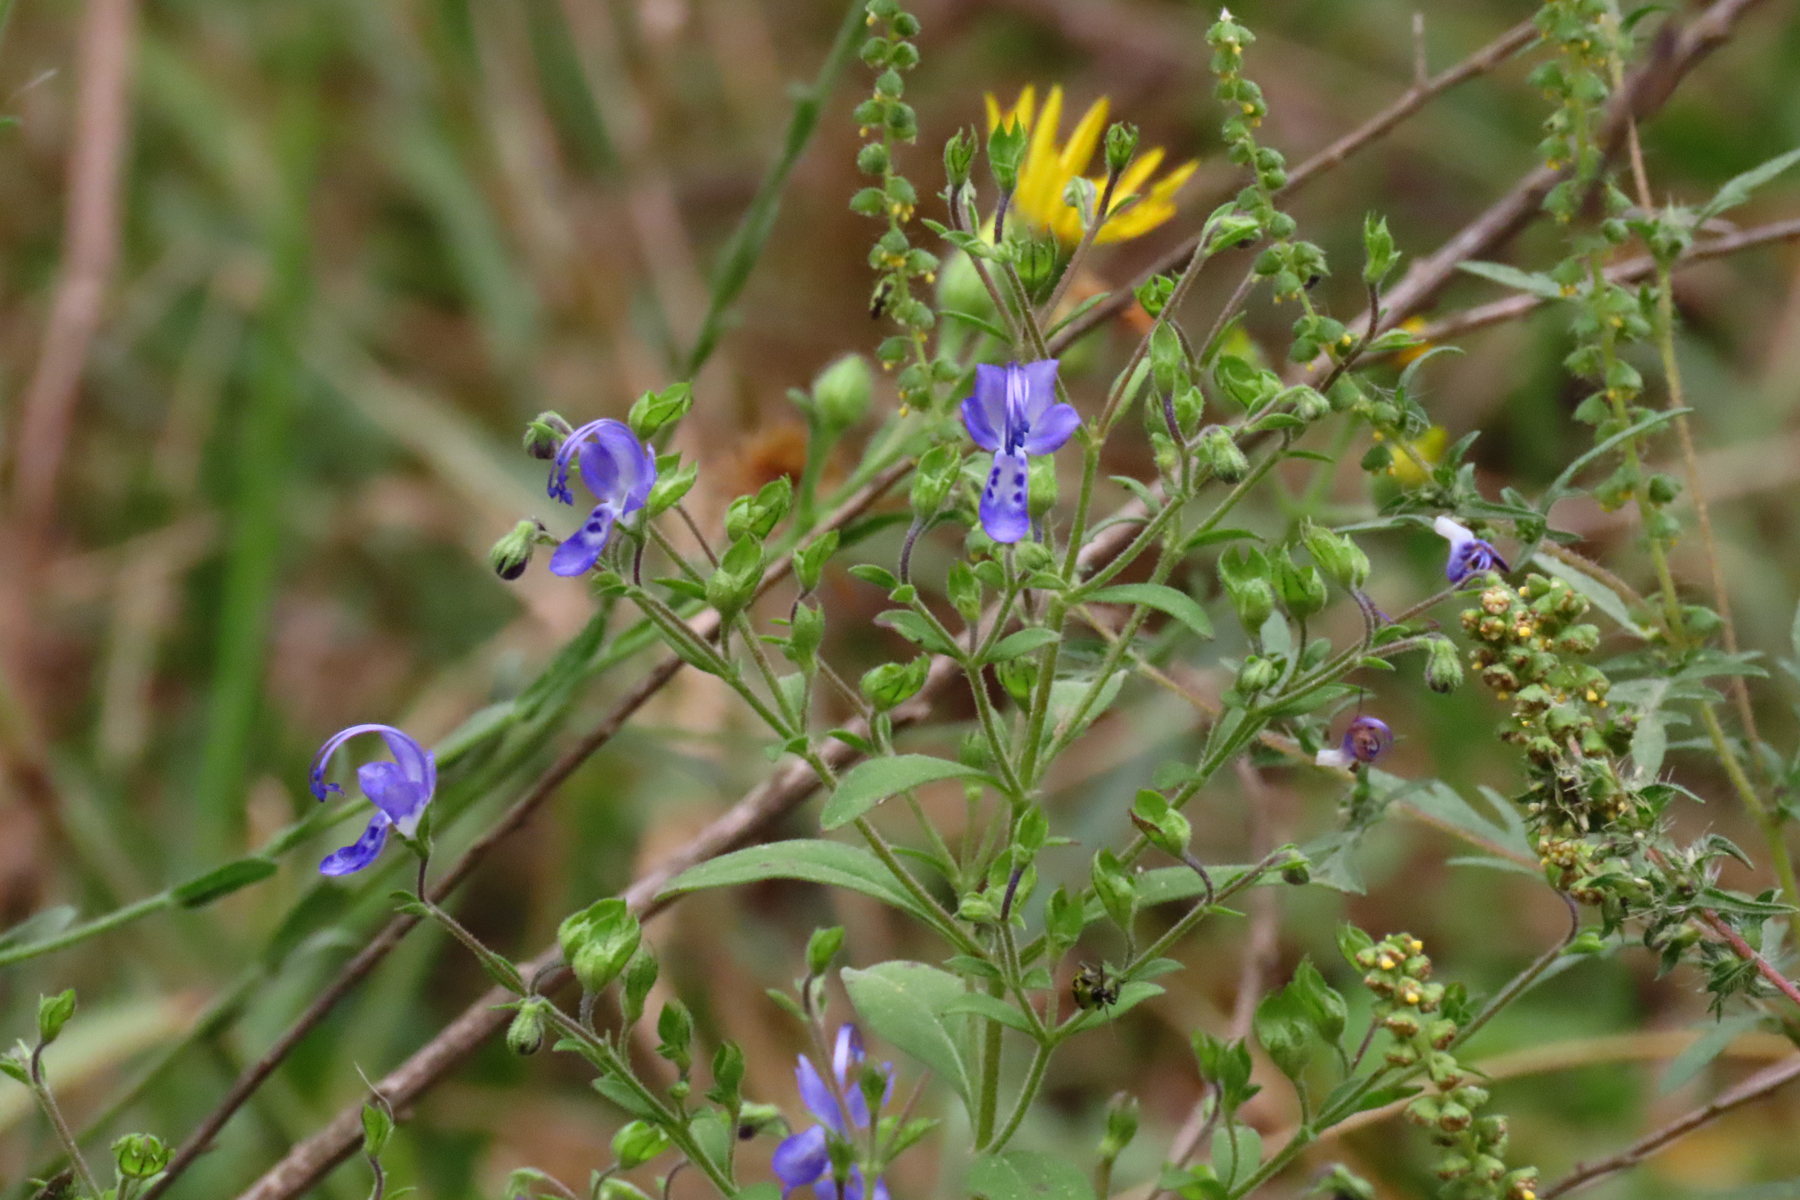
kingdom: Plantae
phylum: Tracheophyta
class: Magnoliopsida
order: Lamiales
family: Lamiaceae
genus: Trichostema
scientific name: Trichostema dichotomum
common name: Bastard pennyroyal
